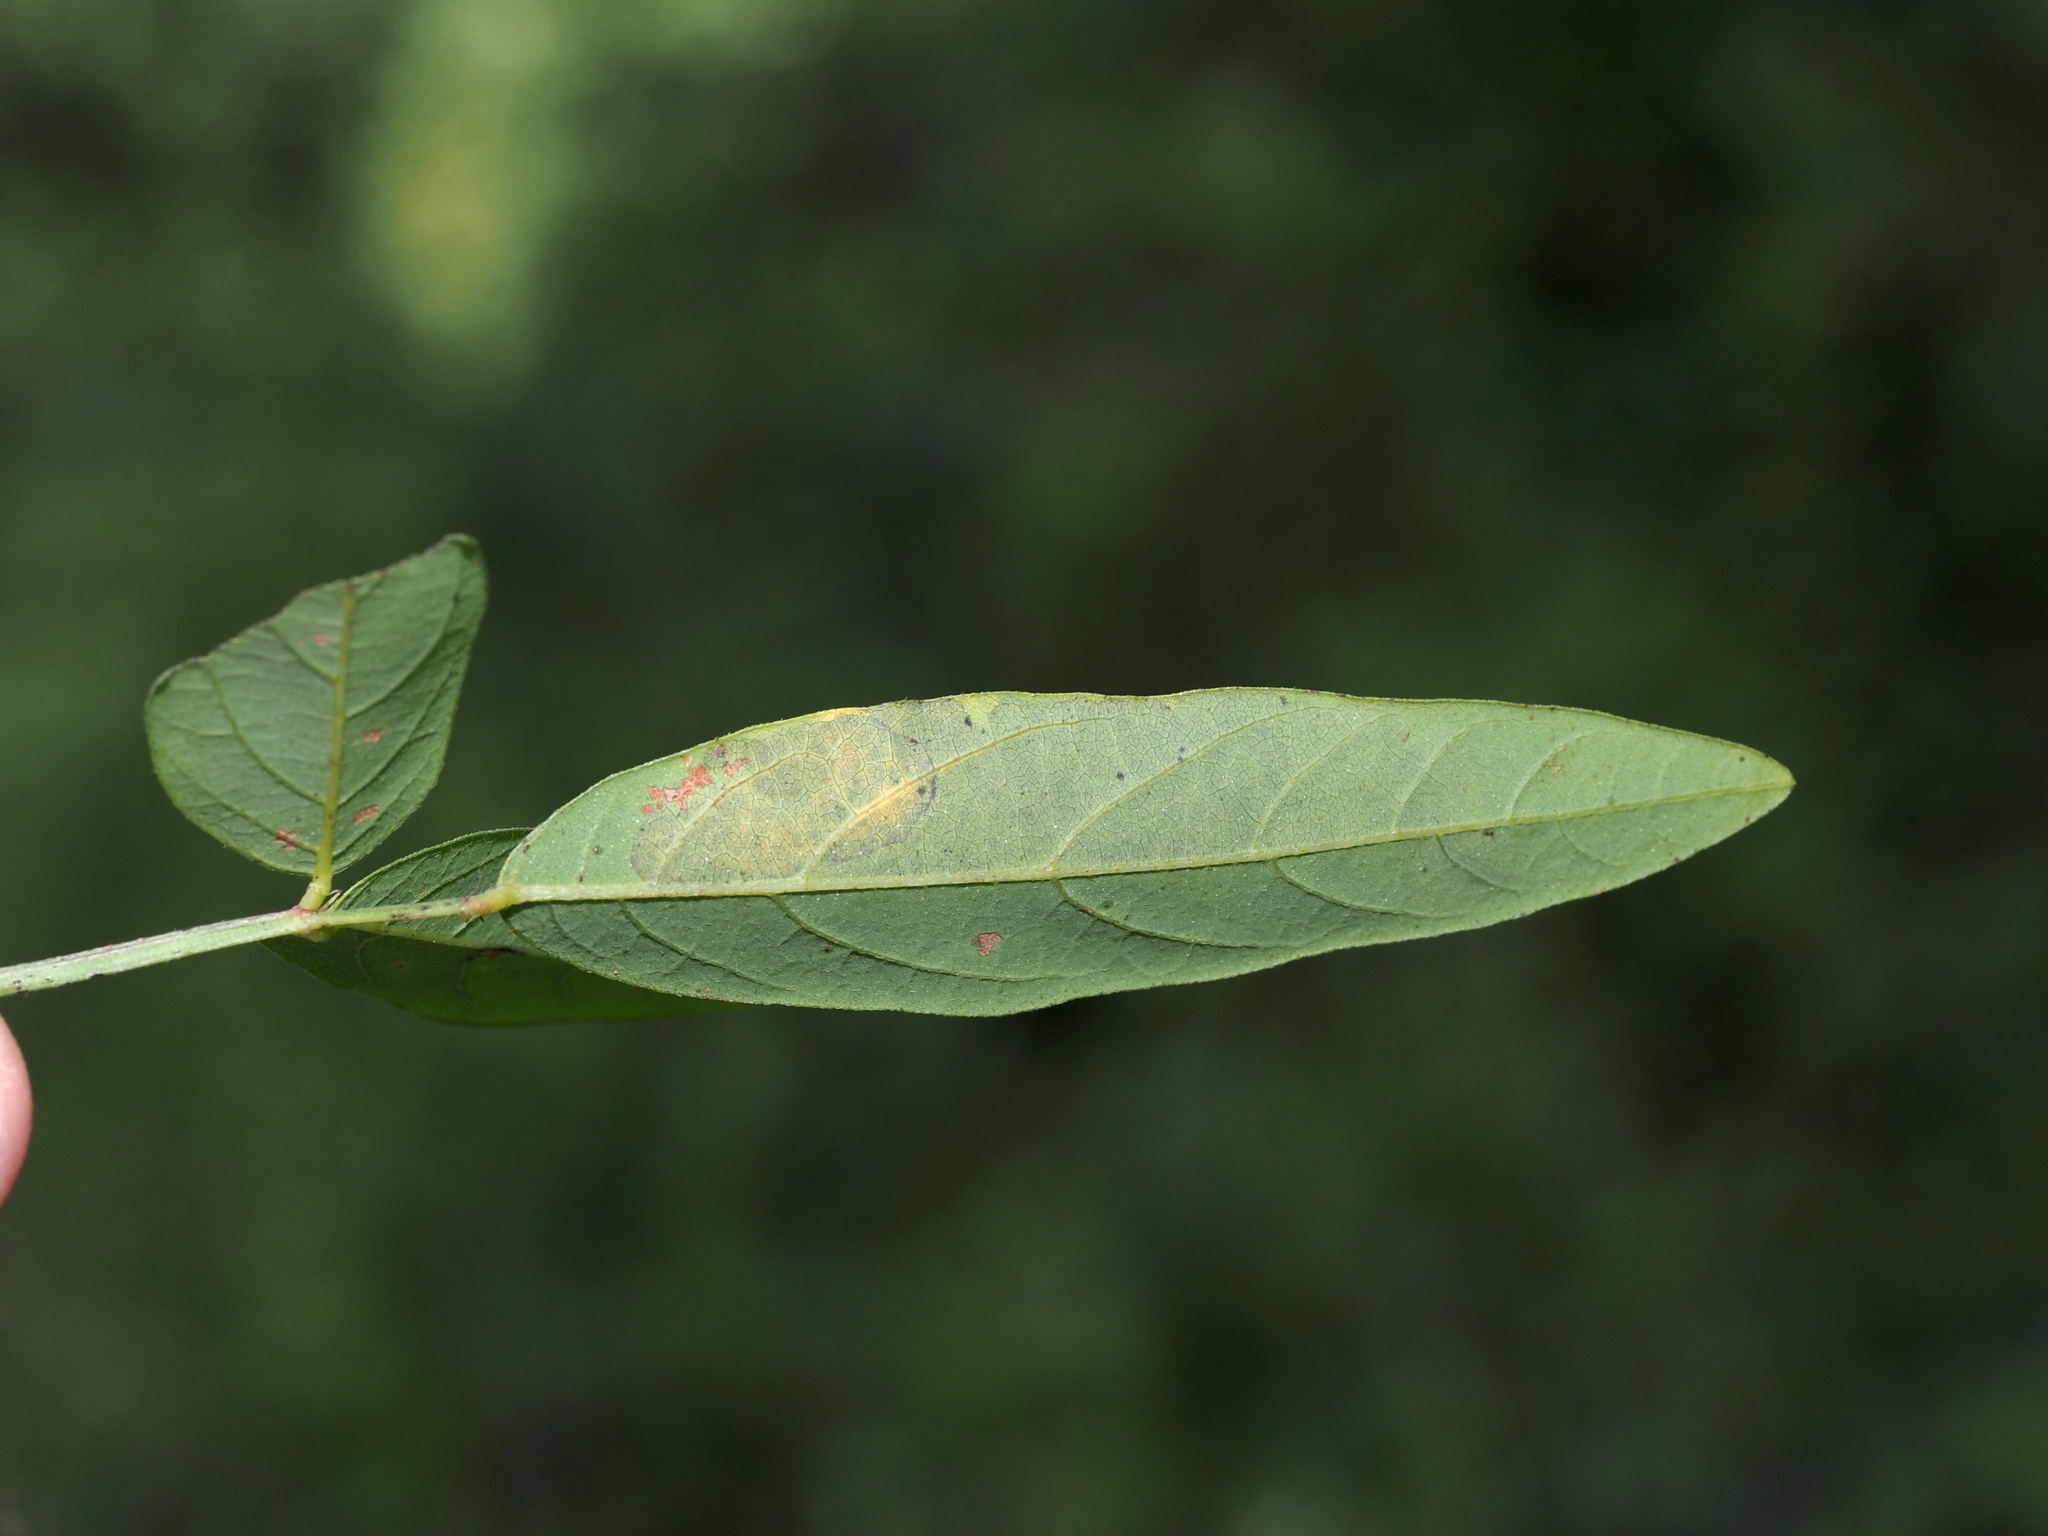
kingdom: Animalia
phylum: Arthropoda
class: Insecta
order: Coleoptera
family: Buprestidae
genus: Pachyschelus
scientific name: Pachyschelus laevigatus
